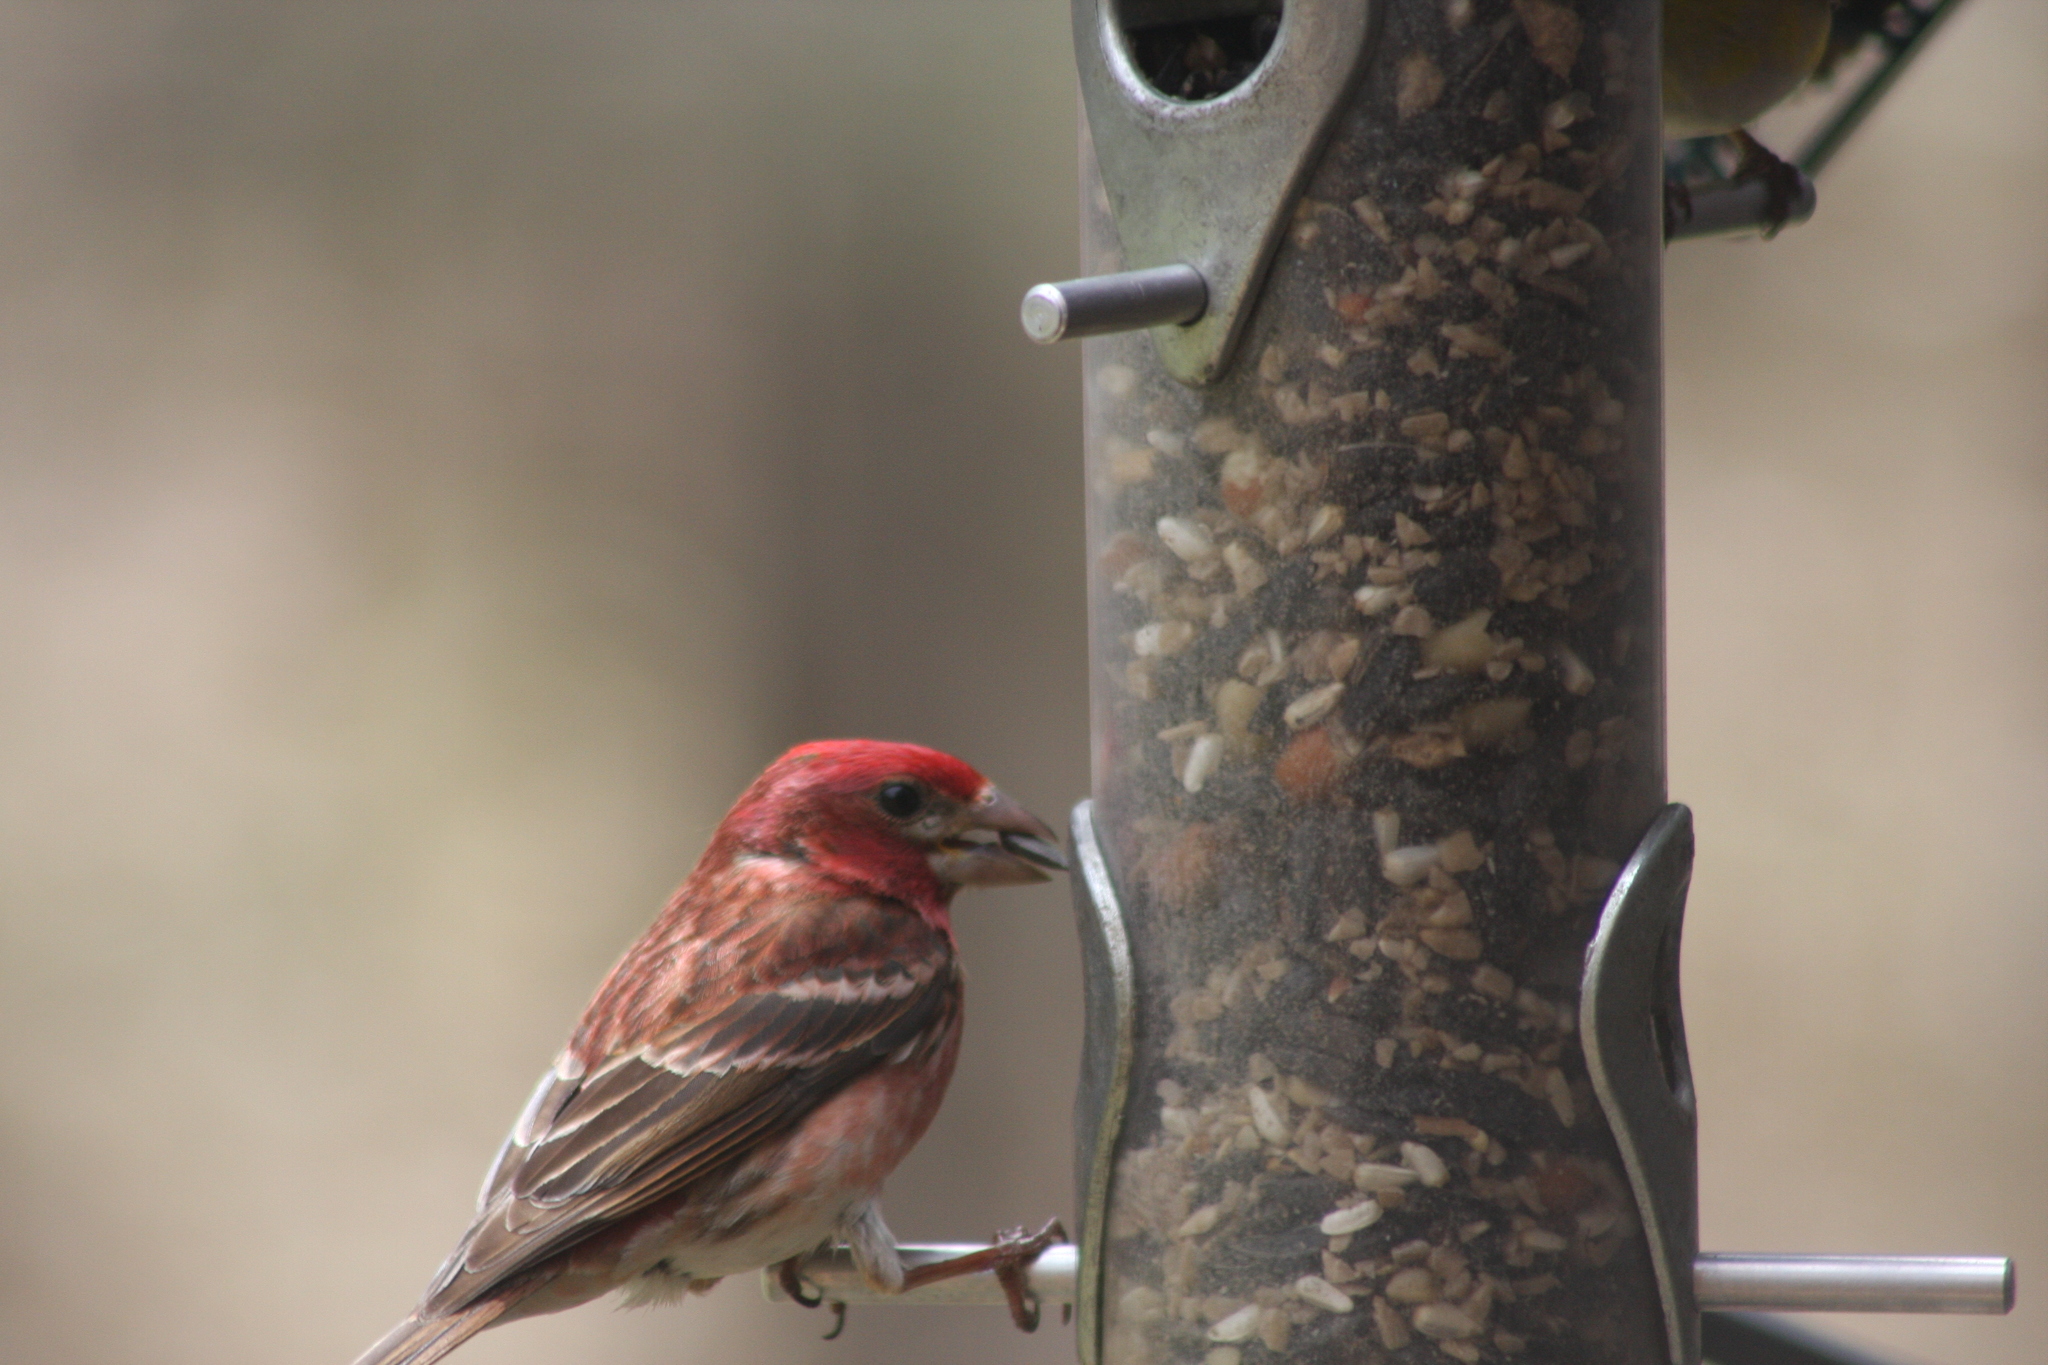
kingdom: Animalia
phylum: Chordata
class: Aves
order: Passeriformes
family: Fringillidae
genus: Haemorhous
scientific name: Haemorhous purpureus
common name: Purple finch
